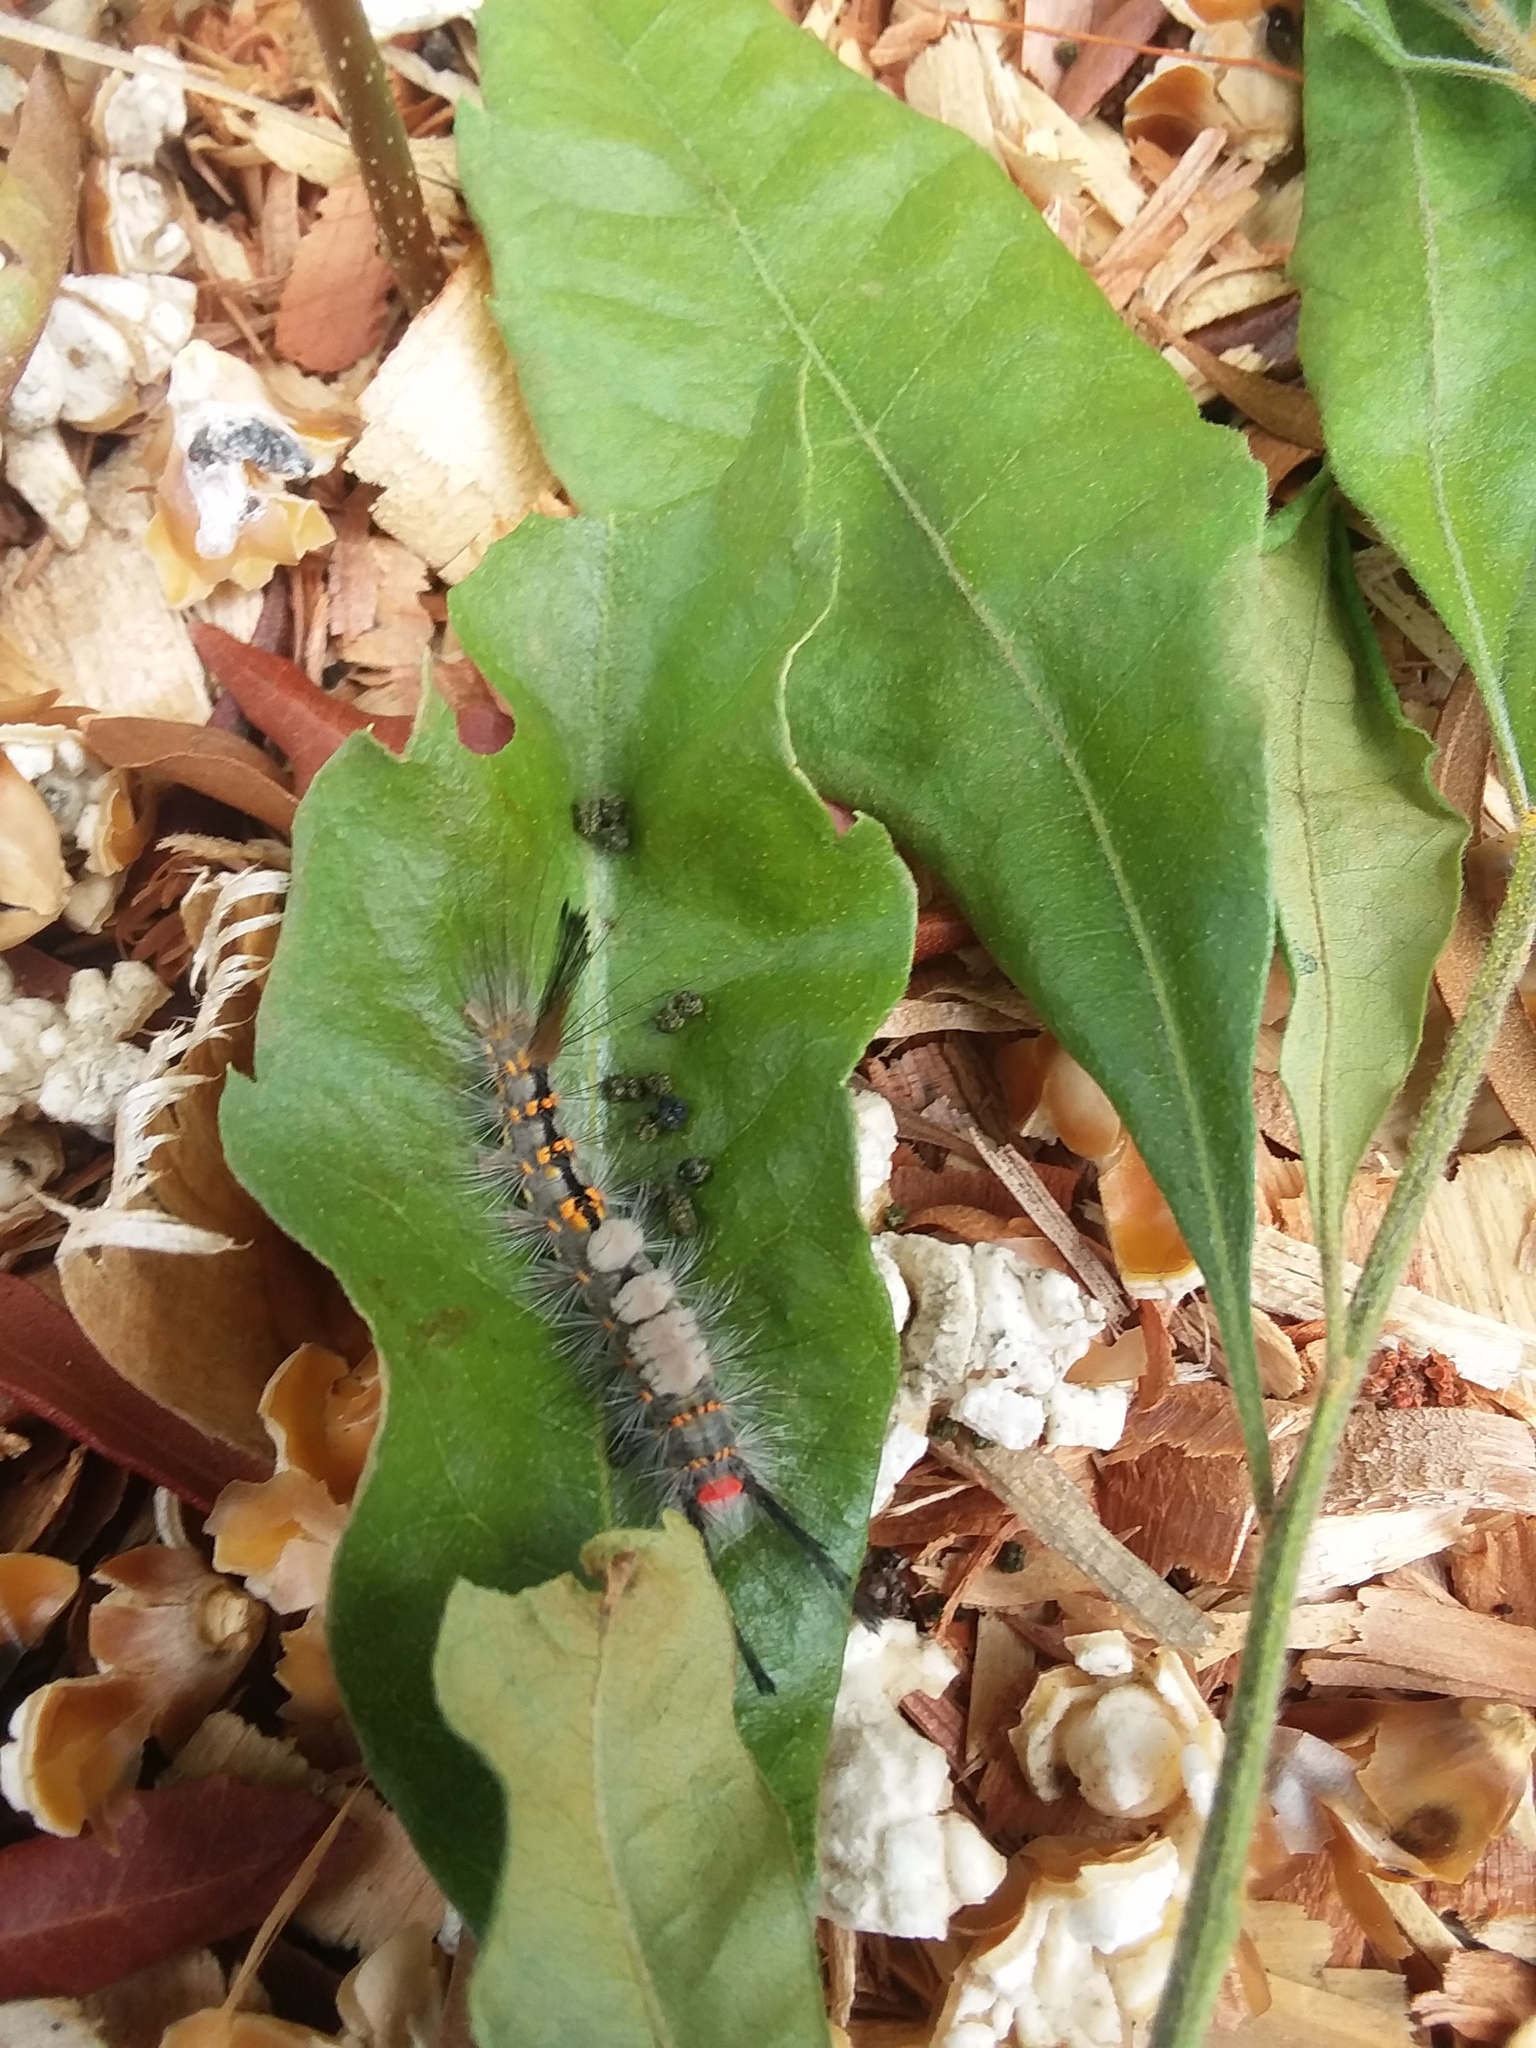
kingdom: Animalia
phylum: Arthropoda
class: Insecta
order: Lepidoptera
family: Erebidae
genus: Orgyia
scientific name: Orgyia detrita
